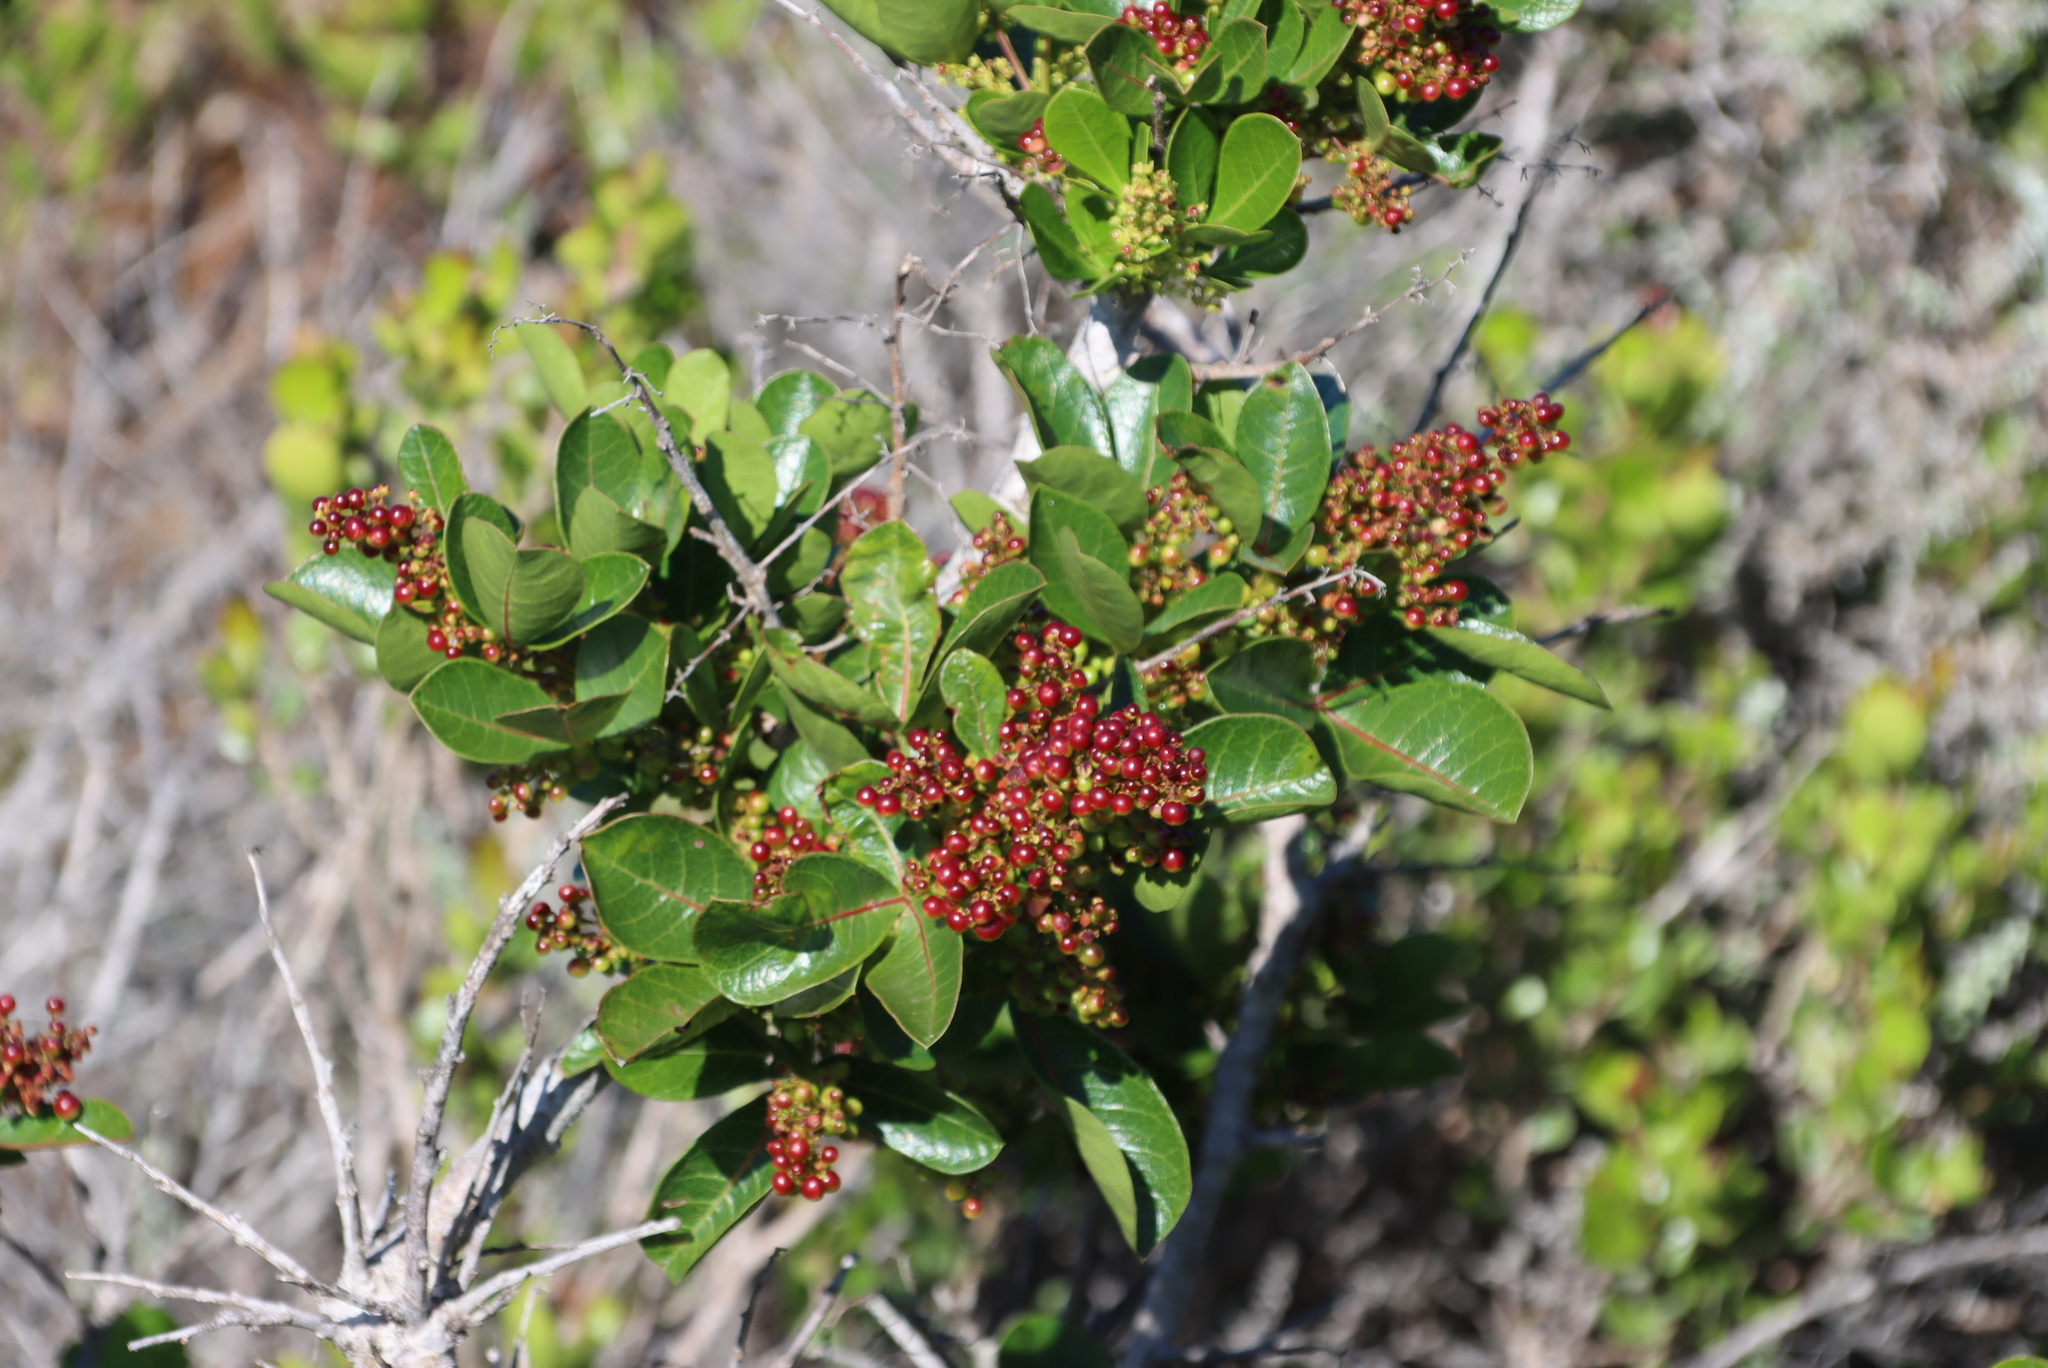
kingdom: Plantae
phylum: Tracheophyta
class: Magnoliopsida
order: Sapindales
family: Anacardiaceae
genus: Searsia
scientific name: Searsia laevigata
